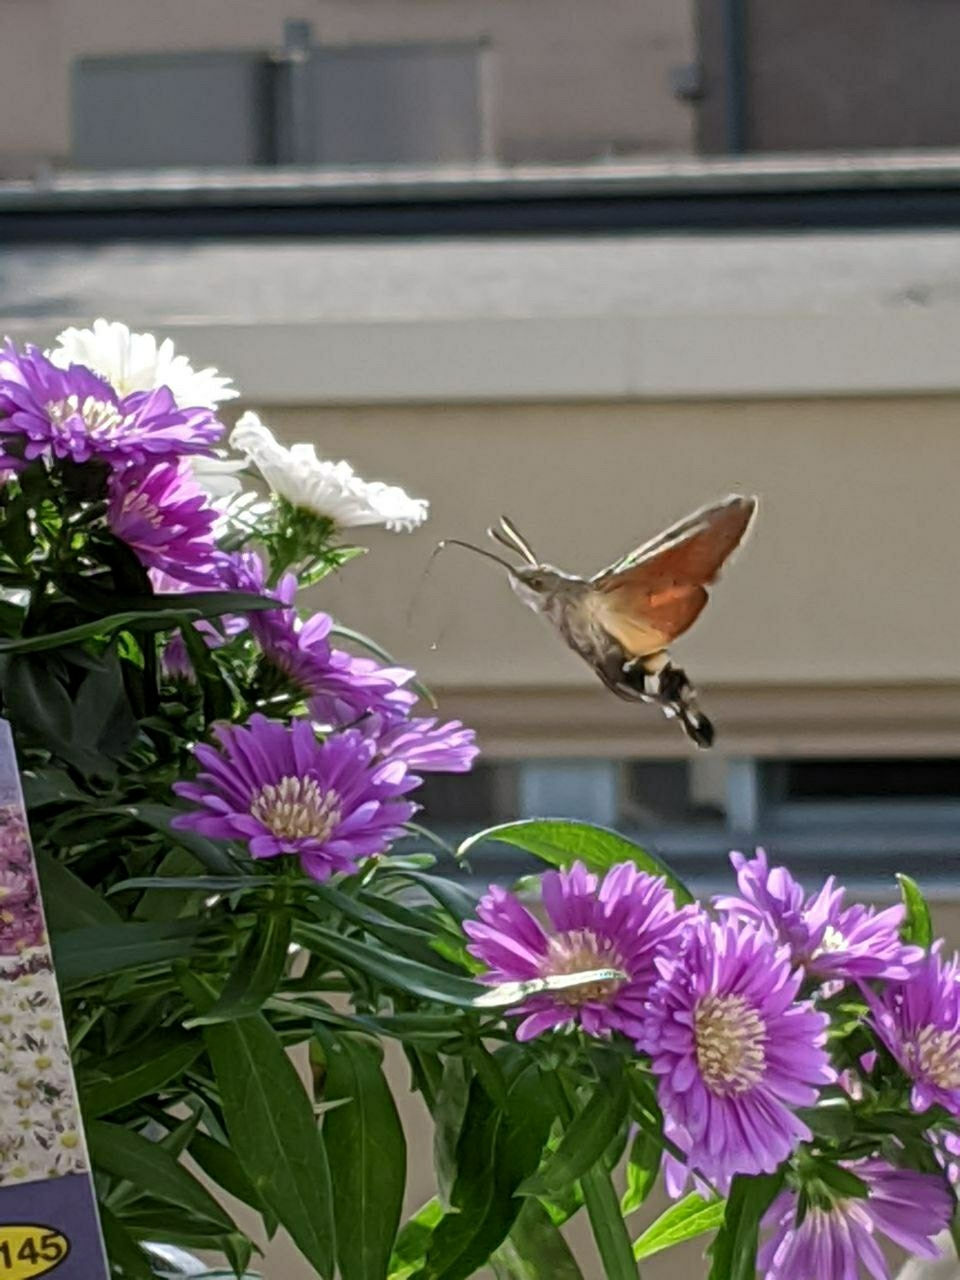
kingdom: Animalia
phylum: Arthropoda
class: Insecta
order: Lepidoptera
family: Sphingidae
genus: Macroglossum
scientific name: Macroglossum stellatarum
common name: Humming-bird hawk-moth
